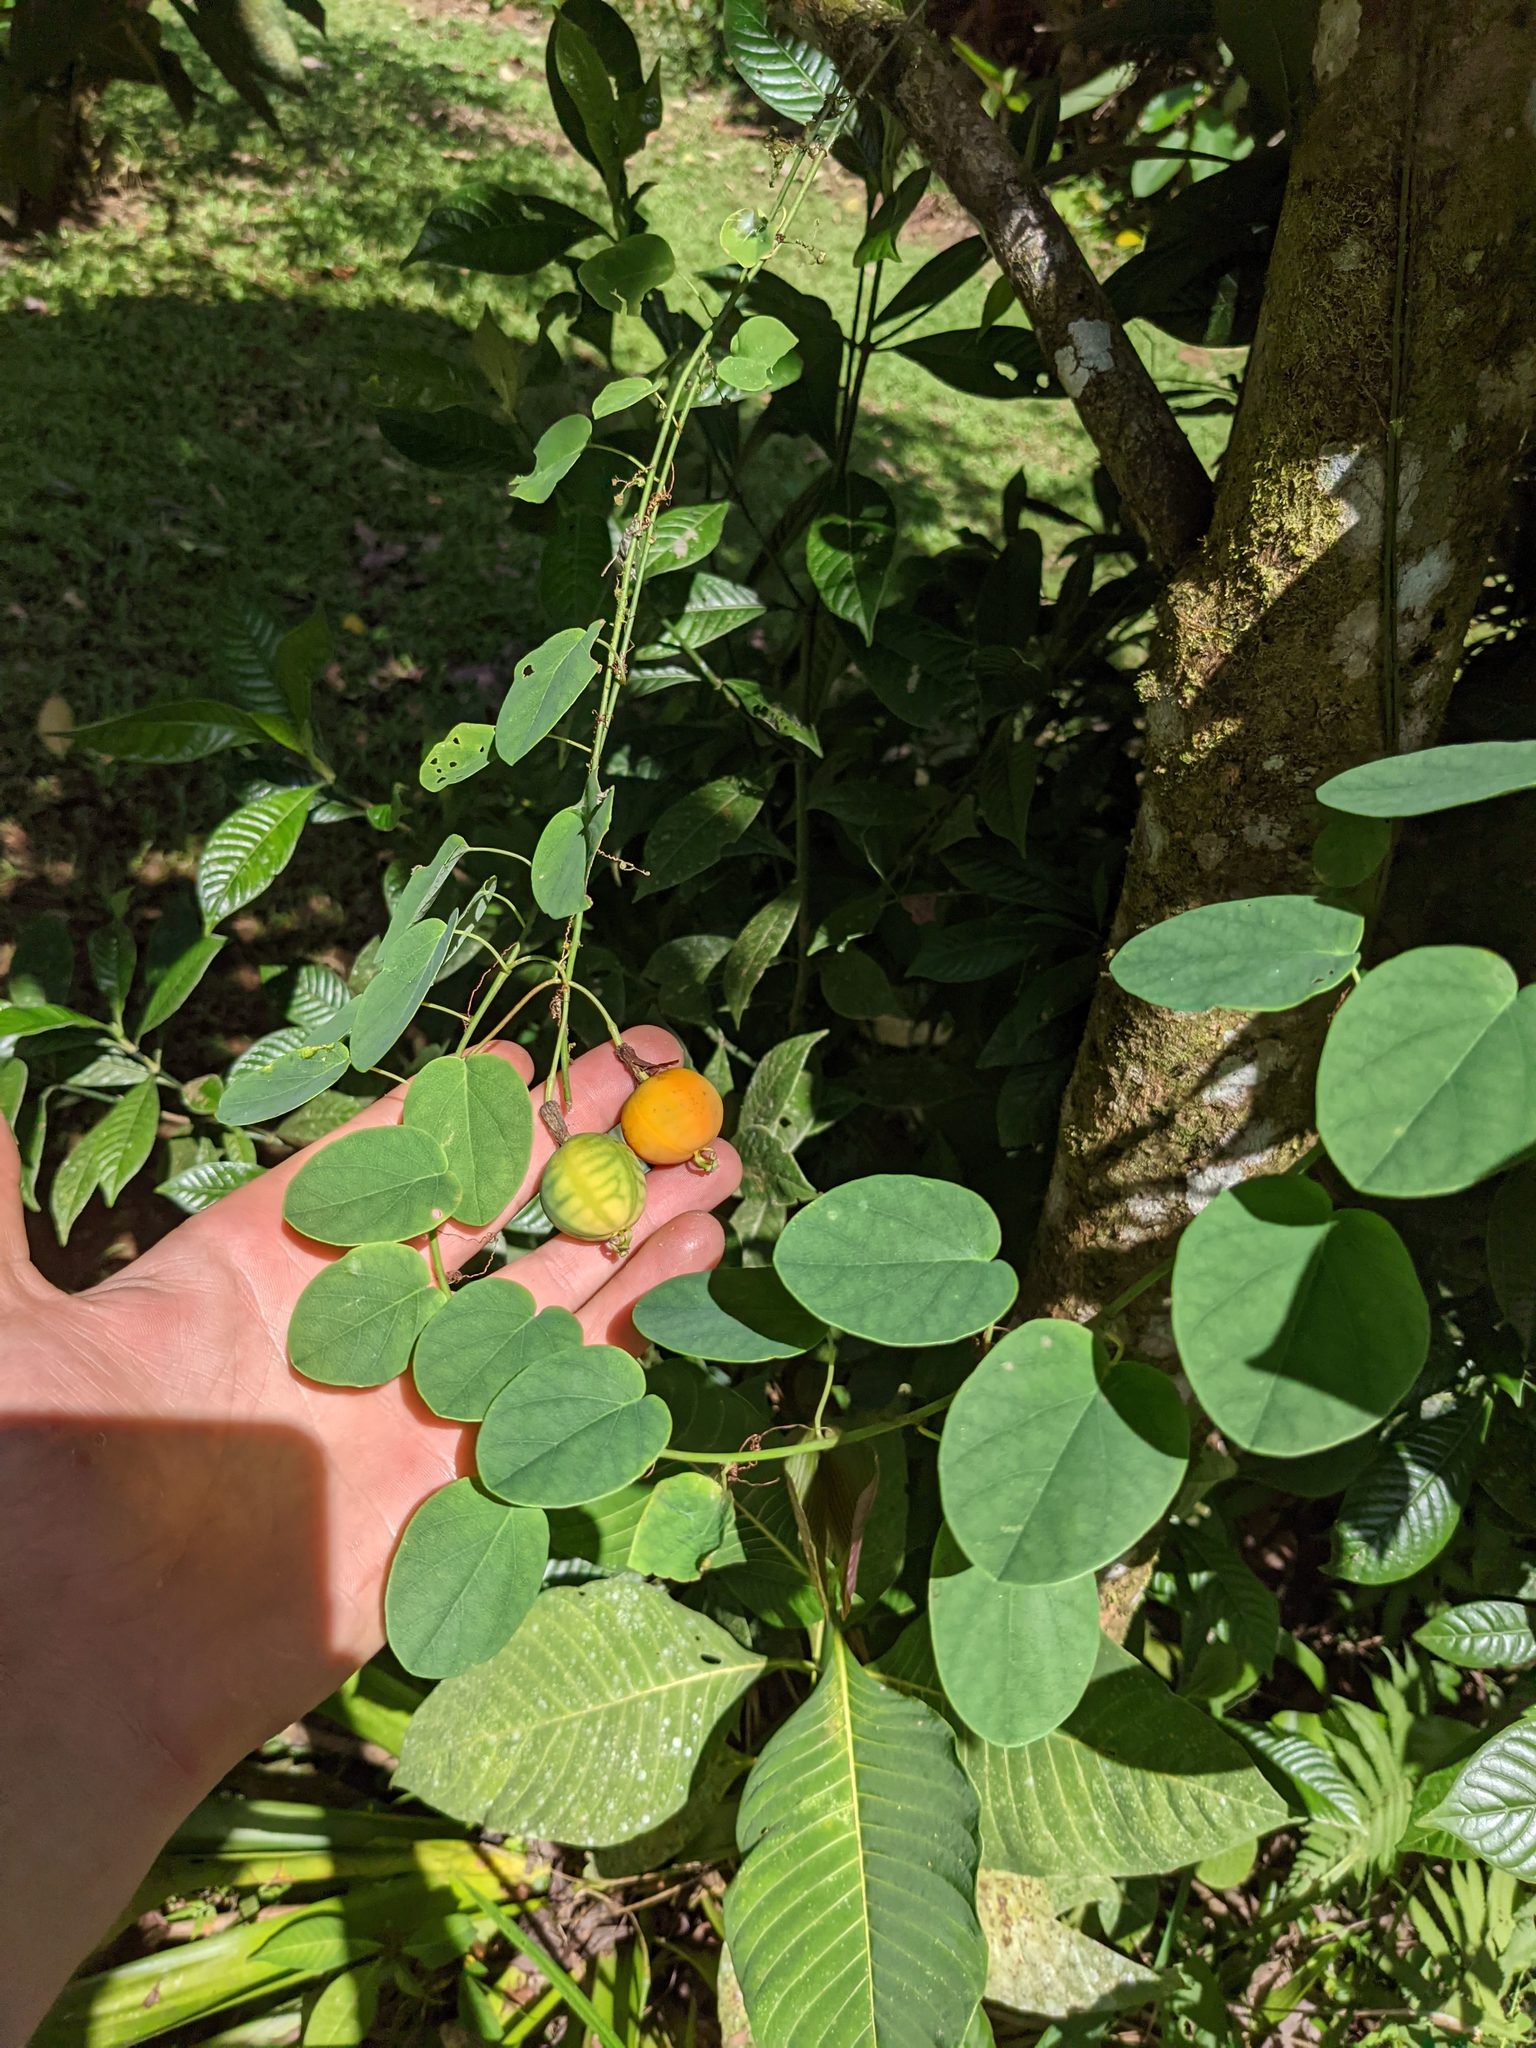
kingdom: Plantae
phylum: Tracheophyta
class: Magnoliopsida
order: Malpighiales
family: Passifloraceae
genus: Passiflora
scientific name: Passiflora arbelaezii
